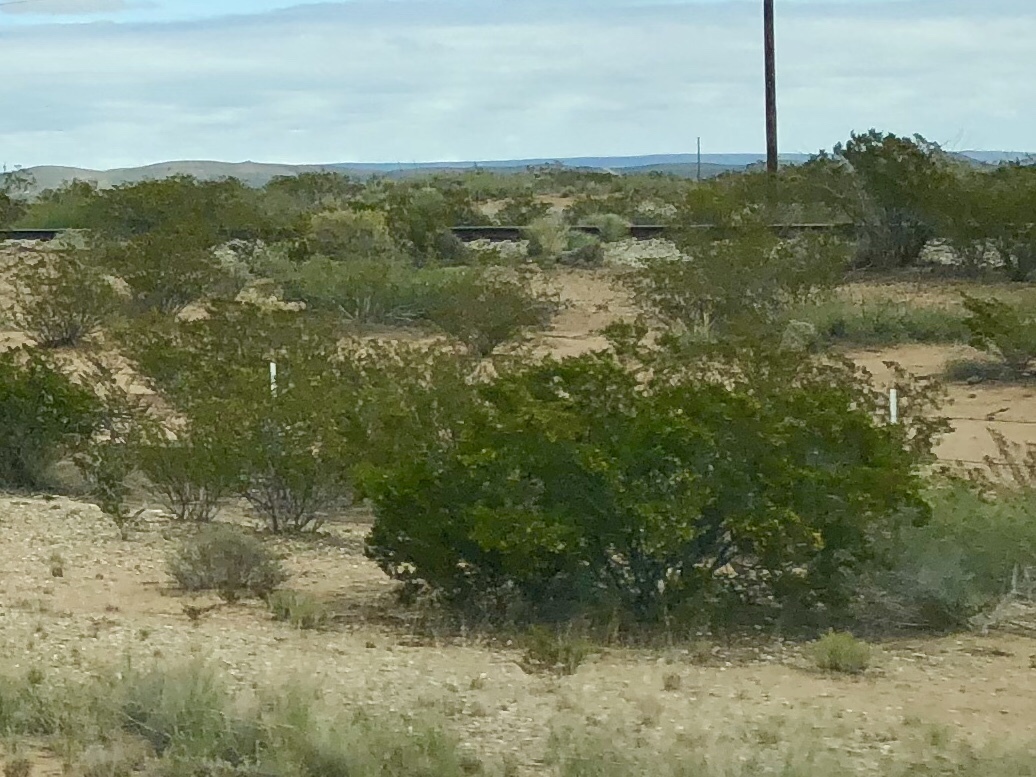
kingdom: Plantae
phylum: Tracheophyta
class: Magnoliopsida
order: Zygophyllales
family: Zygophyllaceae
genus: Larrea
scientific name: Larrea tridentata
